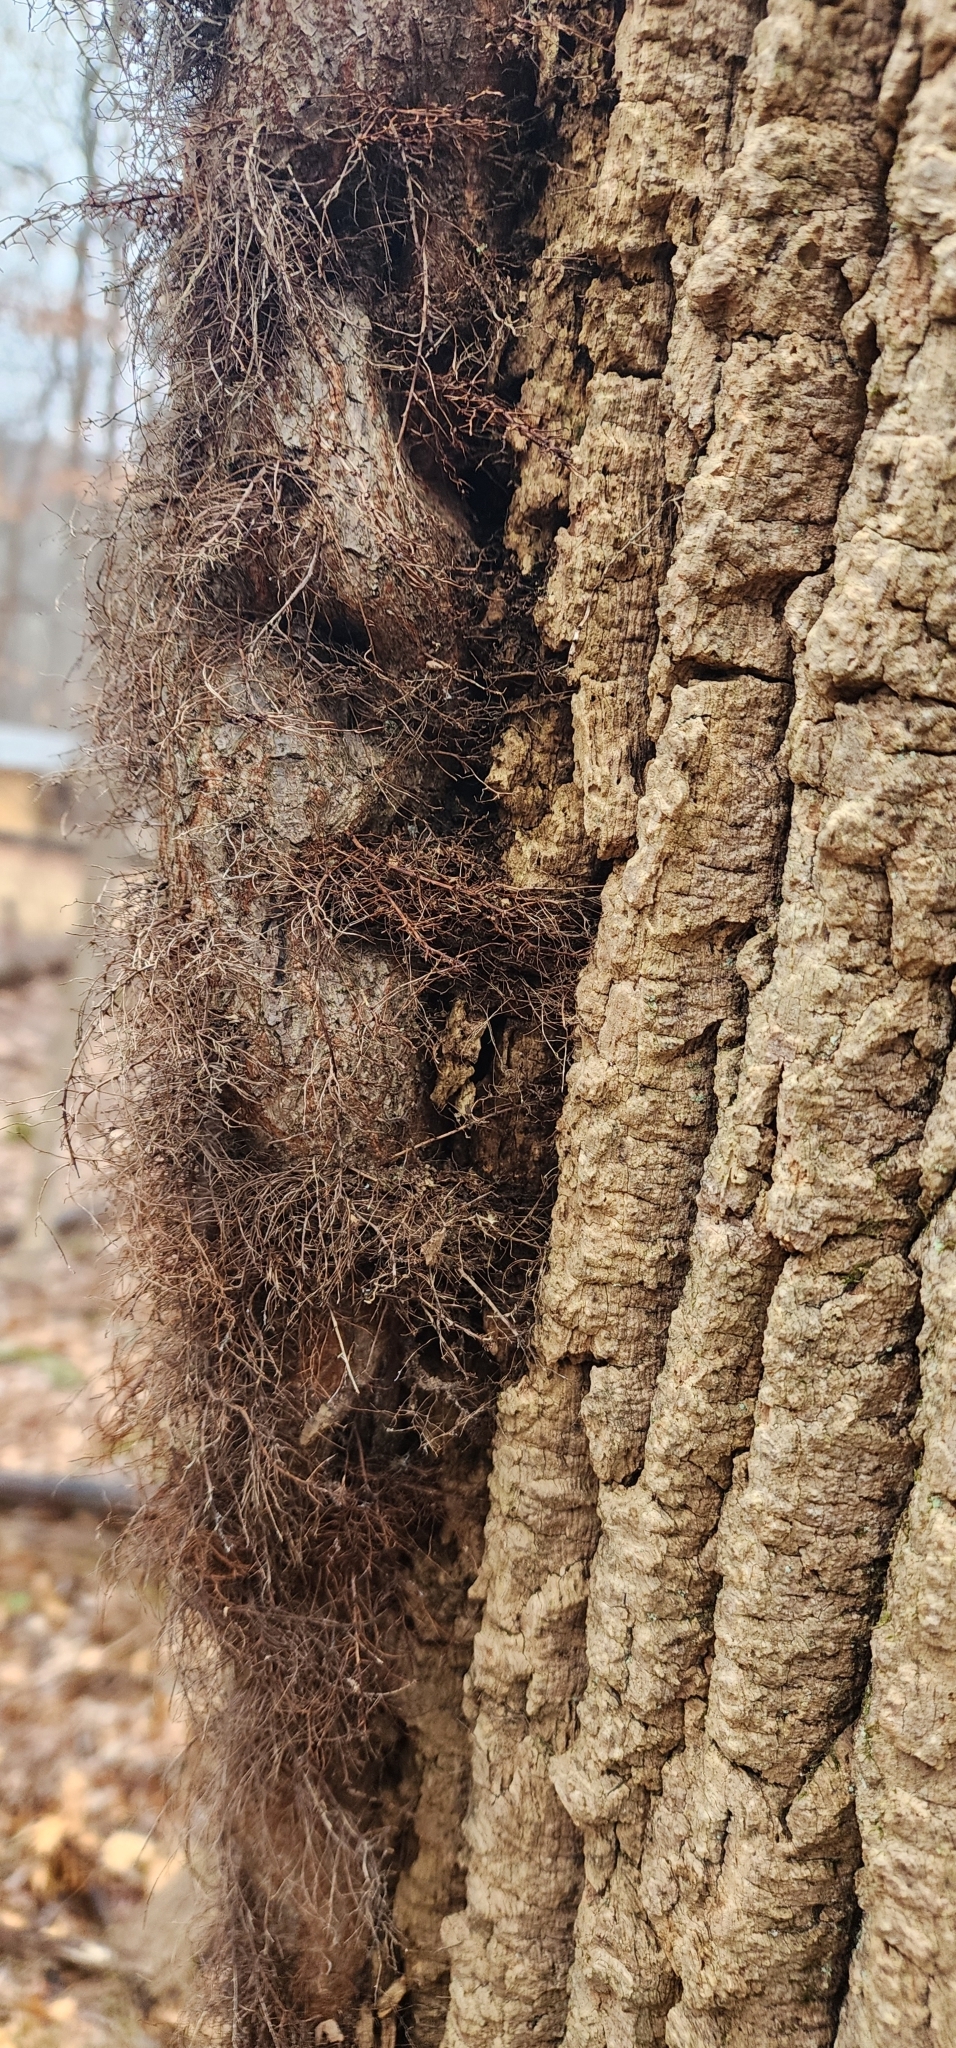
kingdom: Plantae
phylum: Tracheophyta
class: Magnoliopsida
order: Sapindales
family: Anacardiaceae
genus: Toxicodendron
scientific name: Toxicodendron radicans
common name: Poison ivy
